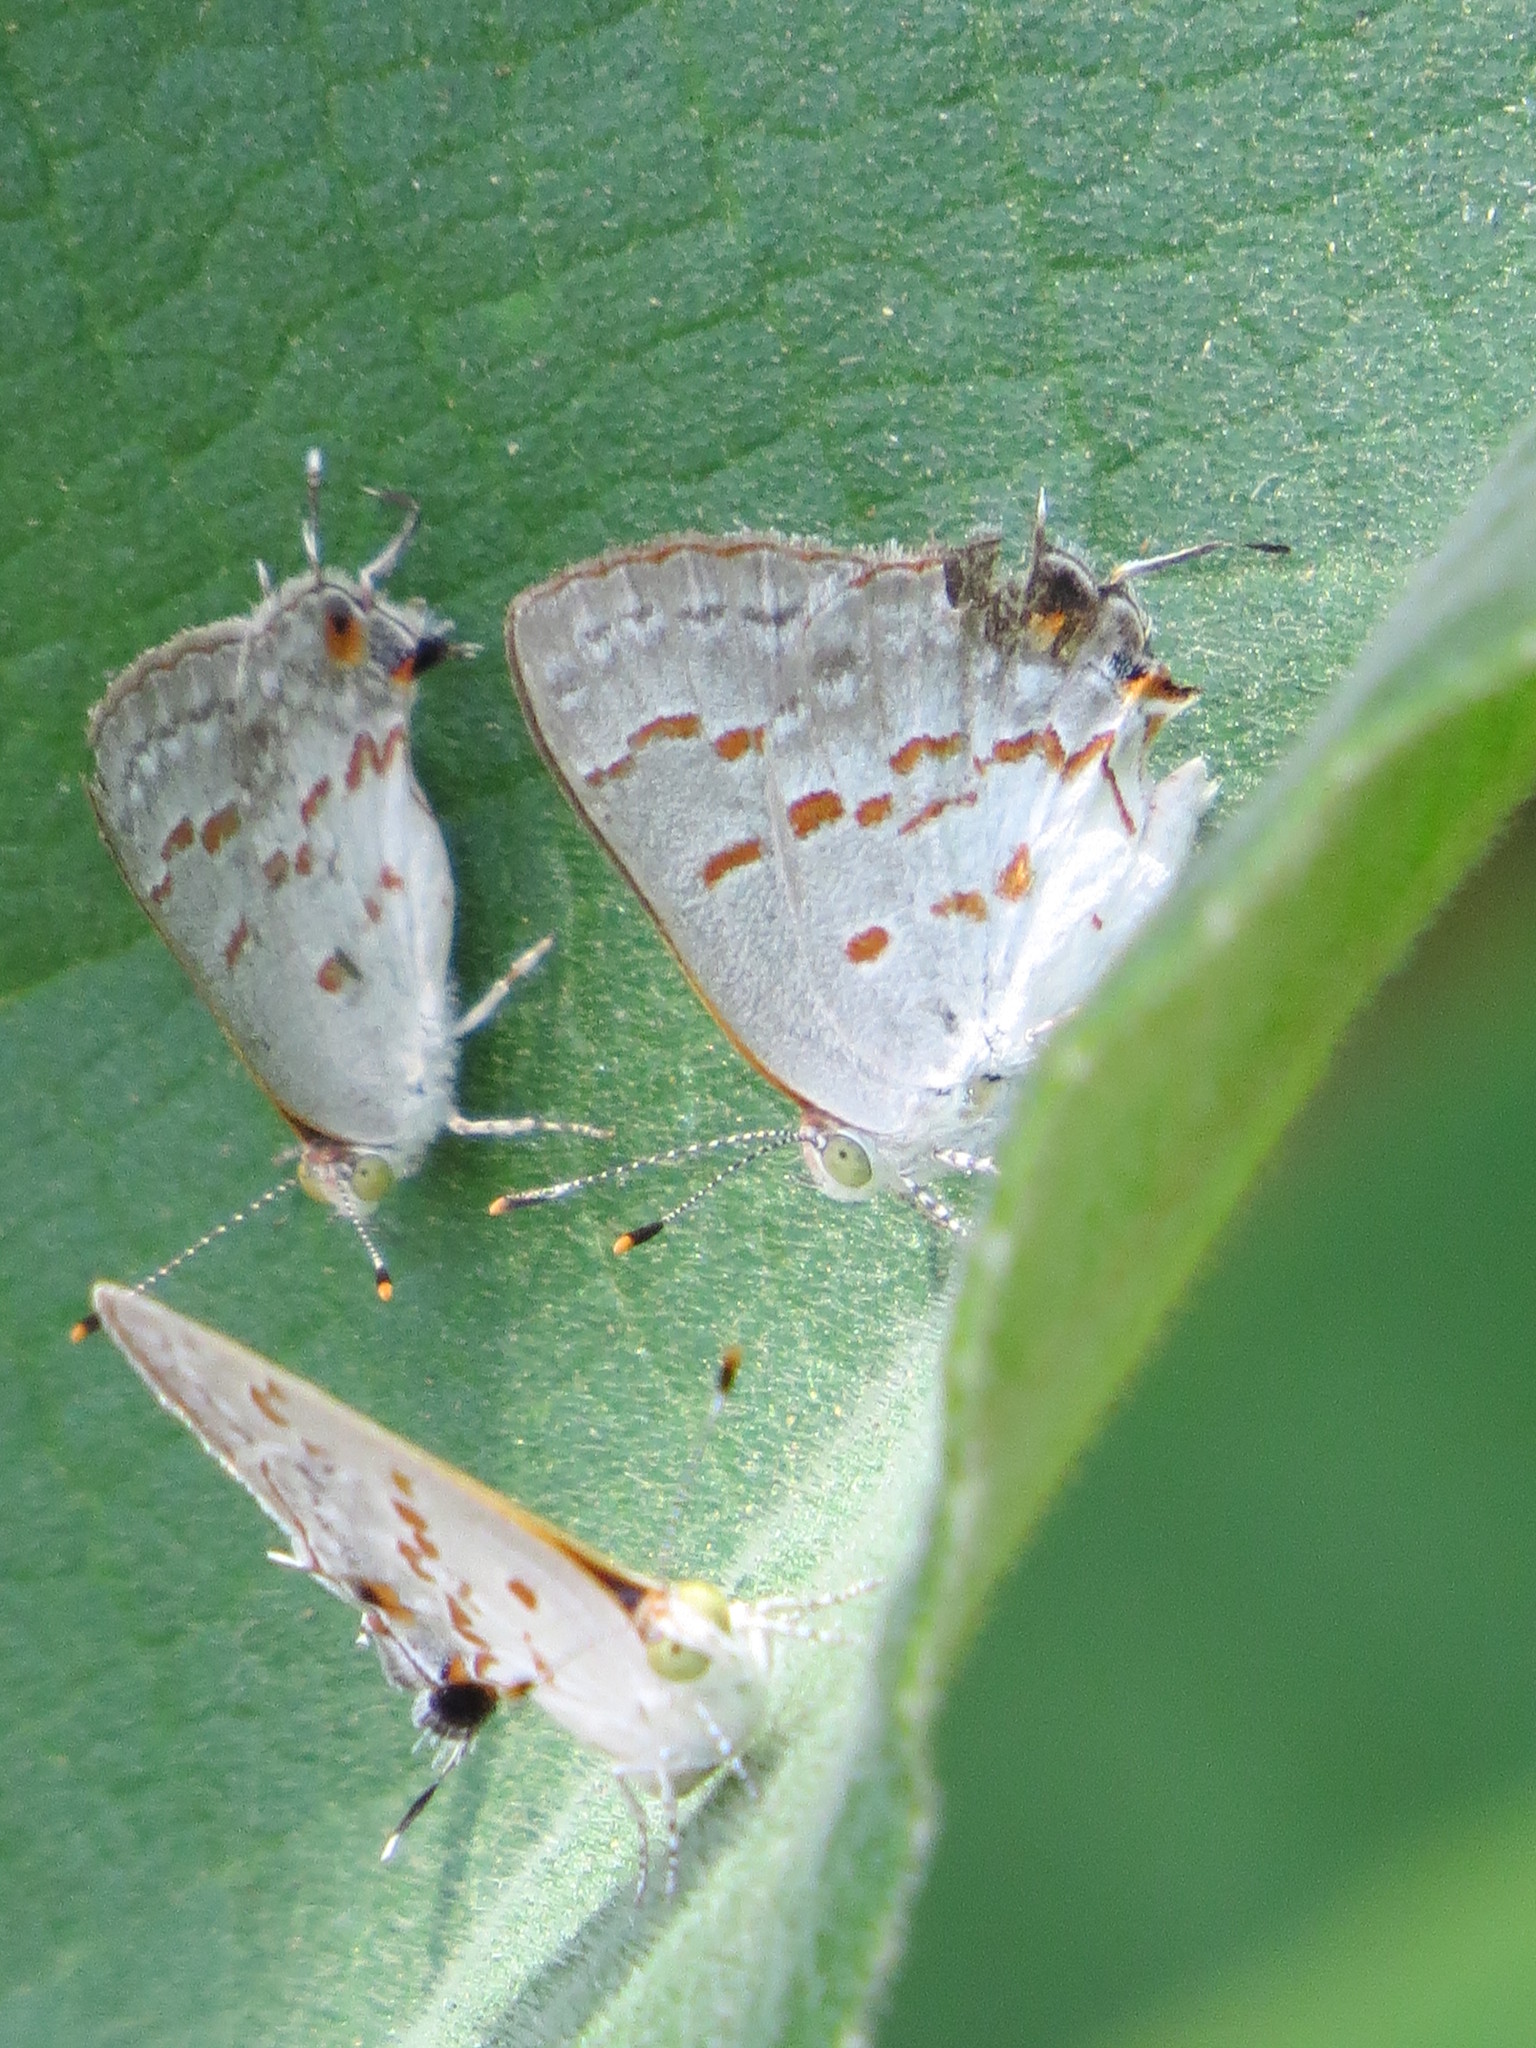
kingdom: Animalia
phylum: Arthropoda
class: Insecta
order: Lepidoptera
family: Lycaenidae
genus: Ministrymon
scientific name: Ministrymon clytie
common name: Clytie ministreak
